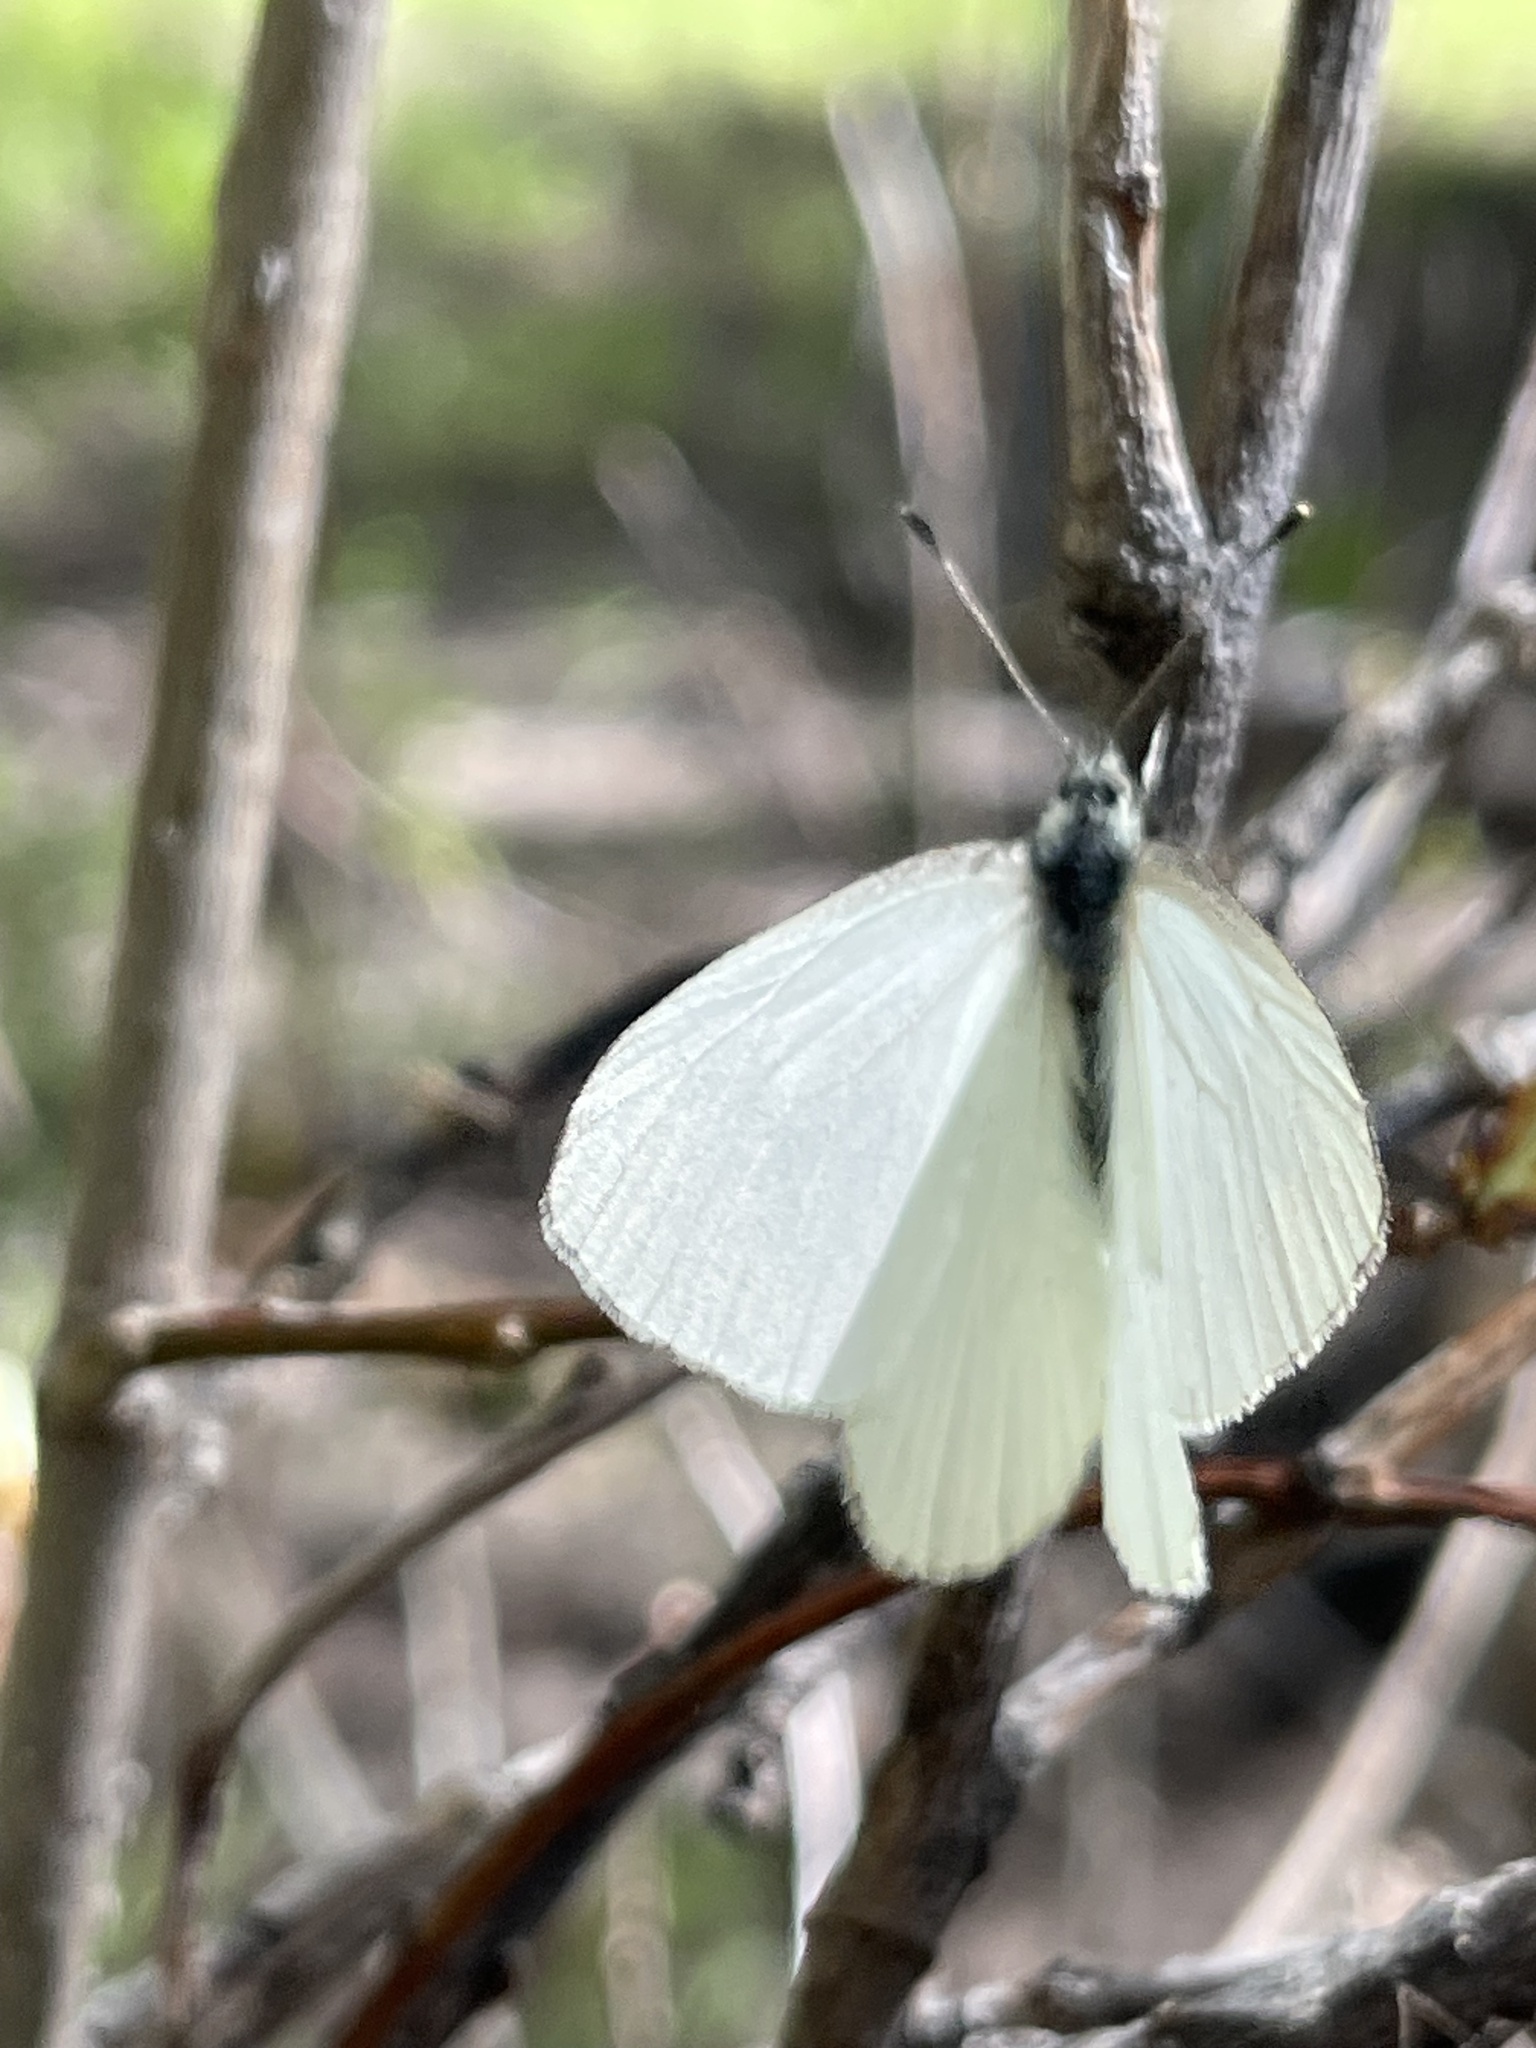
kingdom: Animalia
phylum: Arthropoda
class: Insecta
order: Lepidoptera
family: Pieridae
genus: Pieris
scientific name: Pieris marginalis
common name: Margined white
